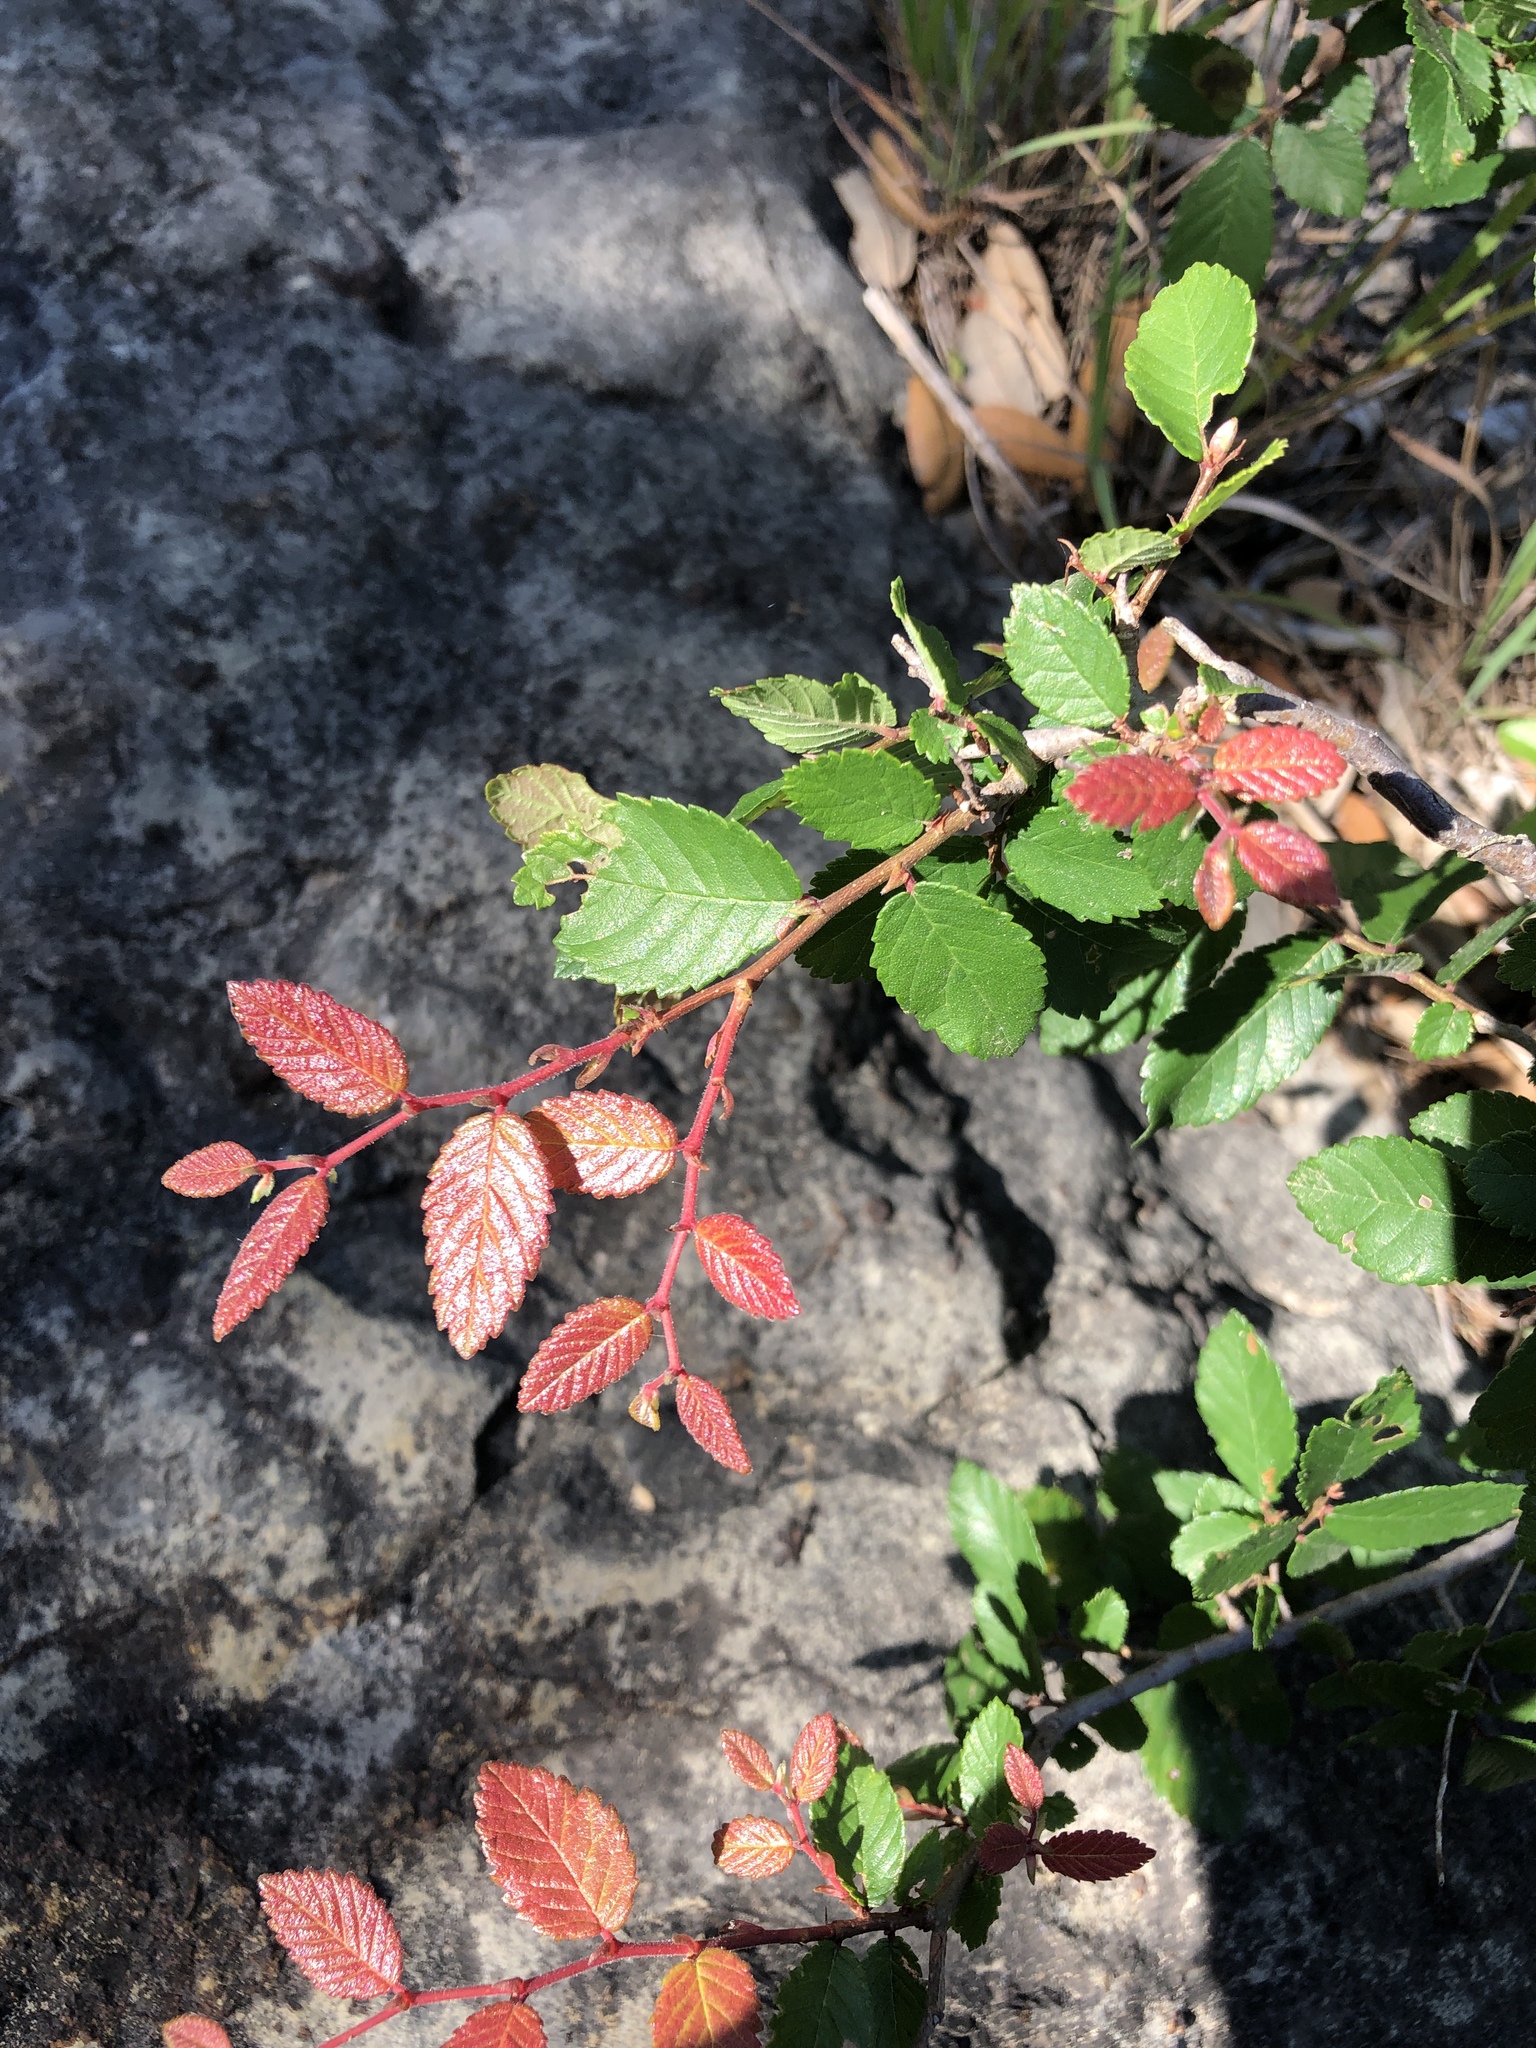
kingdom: Plantae
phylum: Tracheophyta
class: Magnoliopsida
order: Rosales
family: Ulmaceae
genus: Ulmus
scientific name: Ulmus crassifolia
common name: Basket elm
